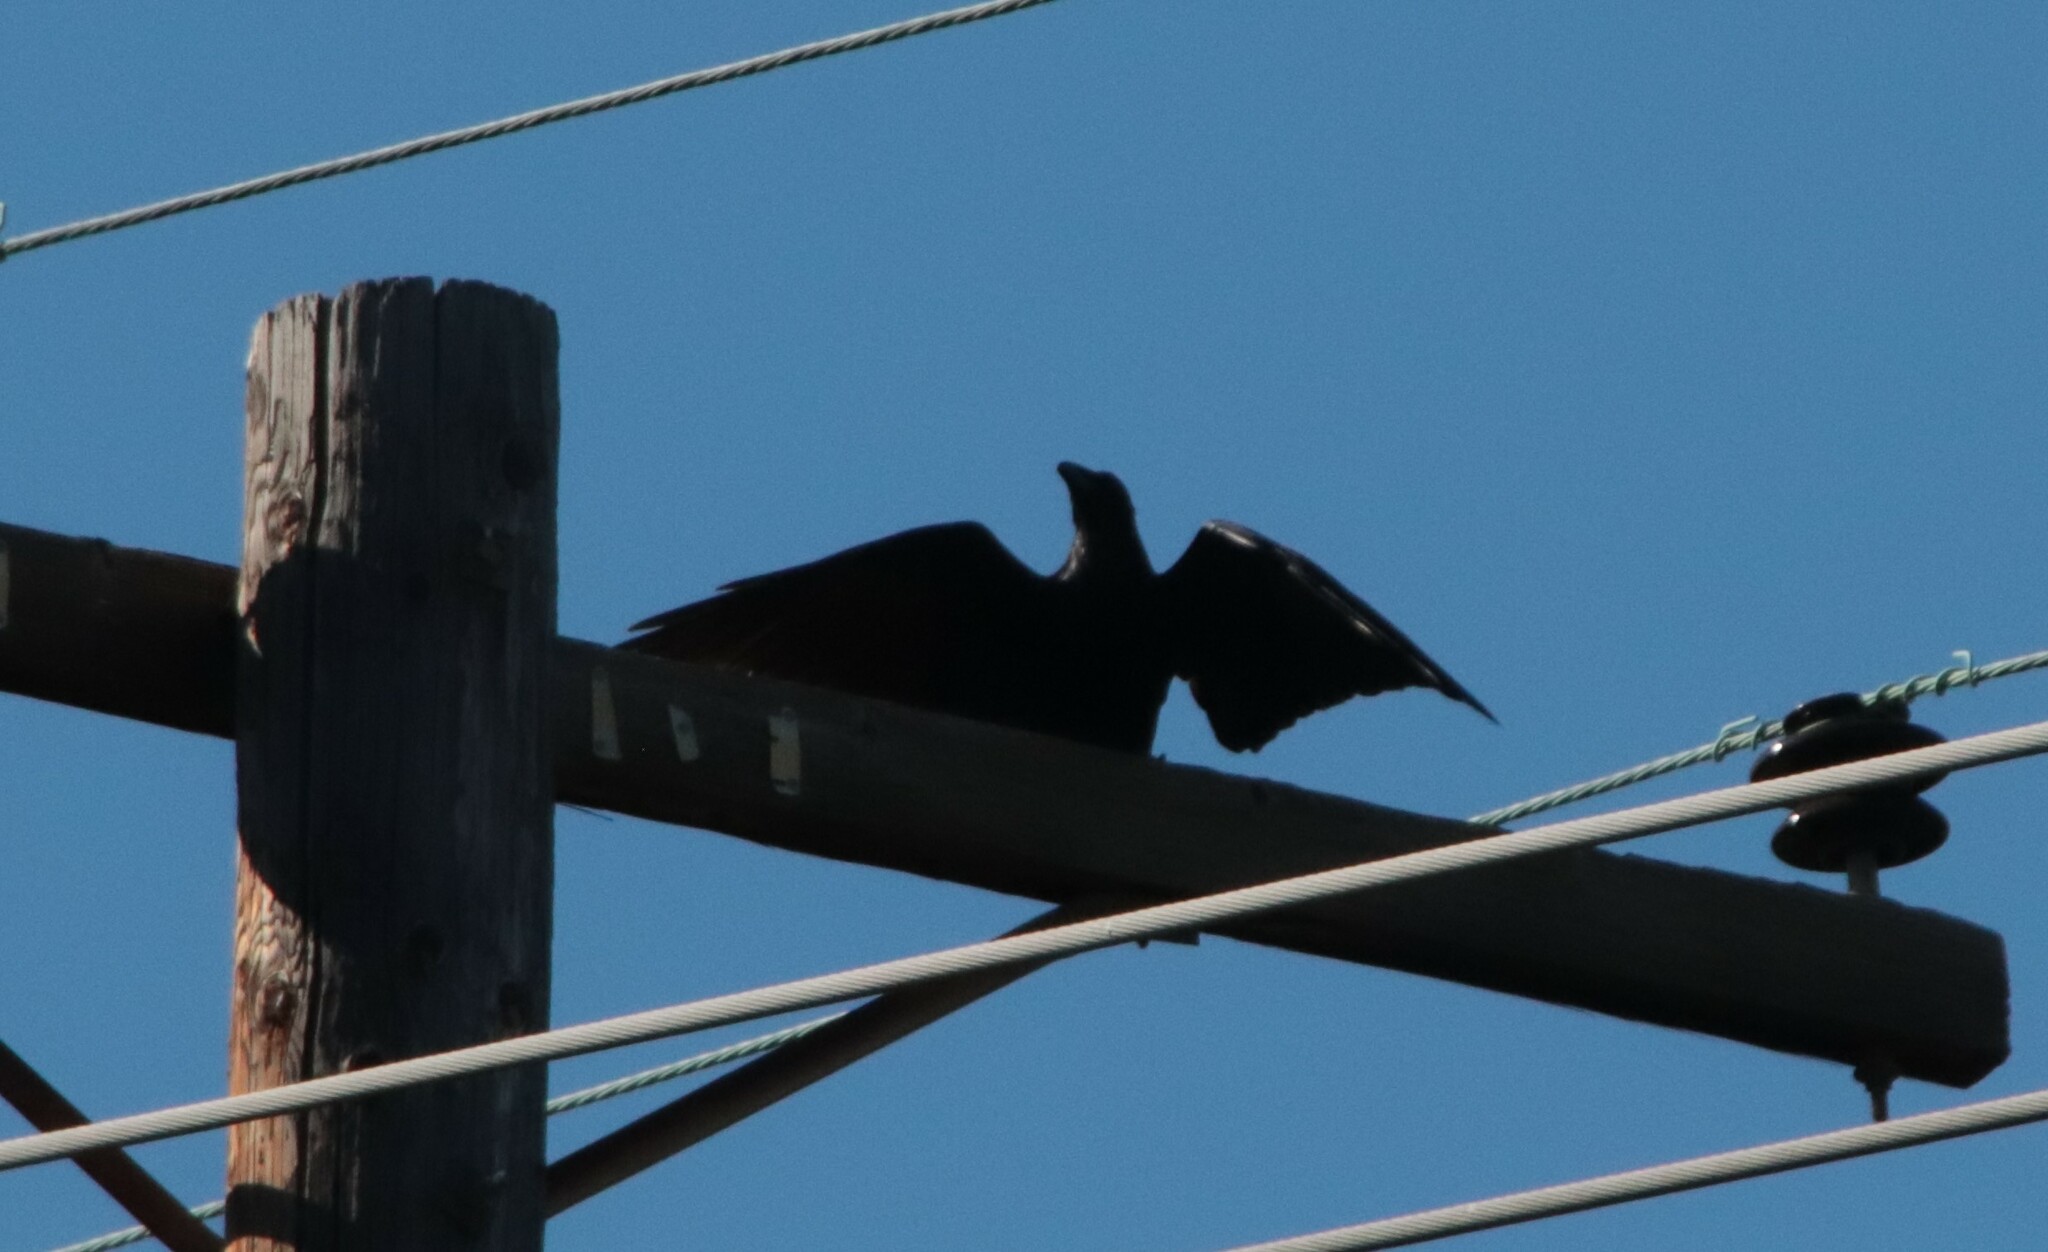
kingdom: Animalia
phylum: Chordata
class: Aves
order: Passeriformes
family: Corvidae
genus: Corvus
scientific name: Corvus corax
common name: Common raven
